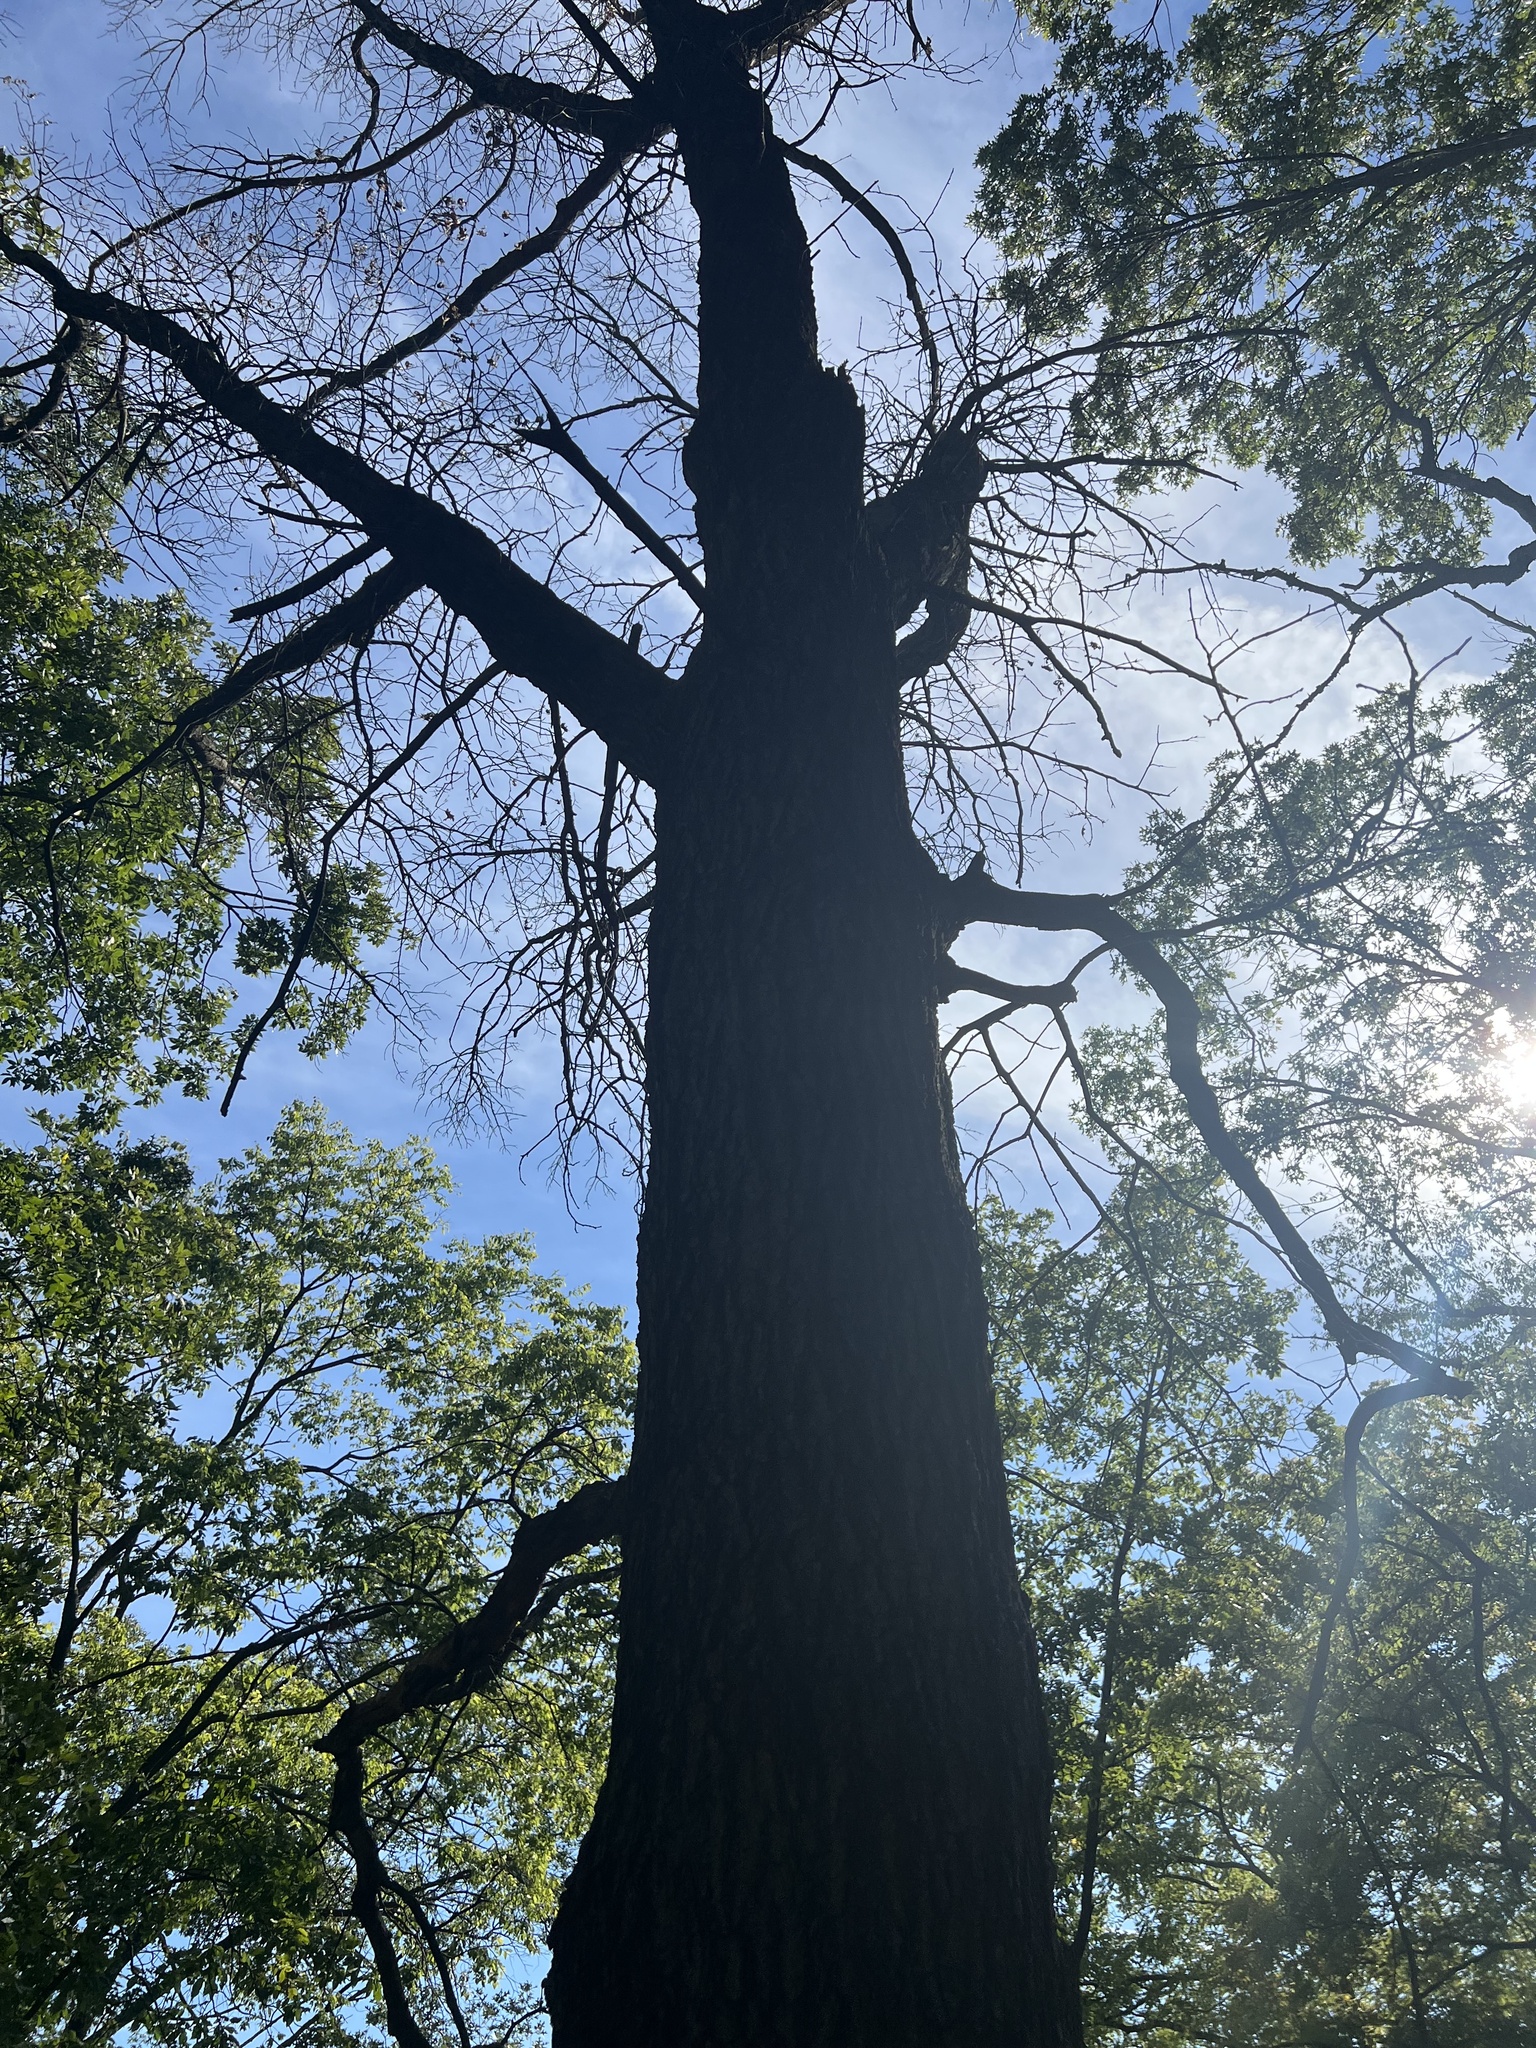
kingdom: Fungi
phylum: Basidiomycota
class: Agaricomycetes
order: Hymenochaetales
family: Hymenochaetaceae
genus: Pseudoinonotus
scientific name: Pseudoinonotus dryadeus
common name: Oak bracket
